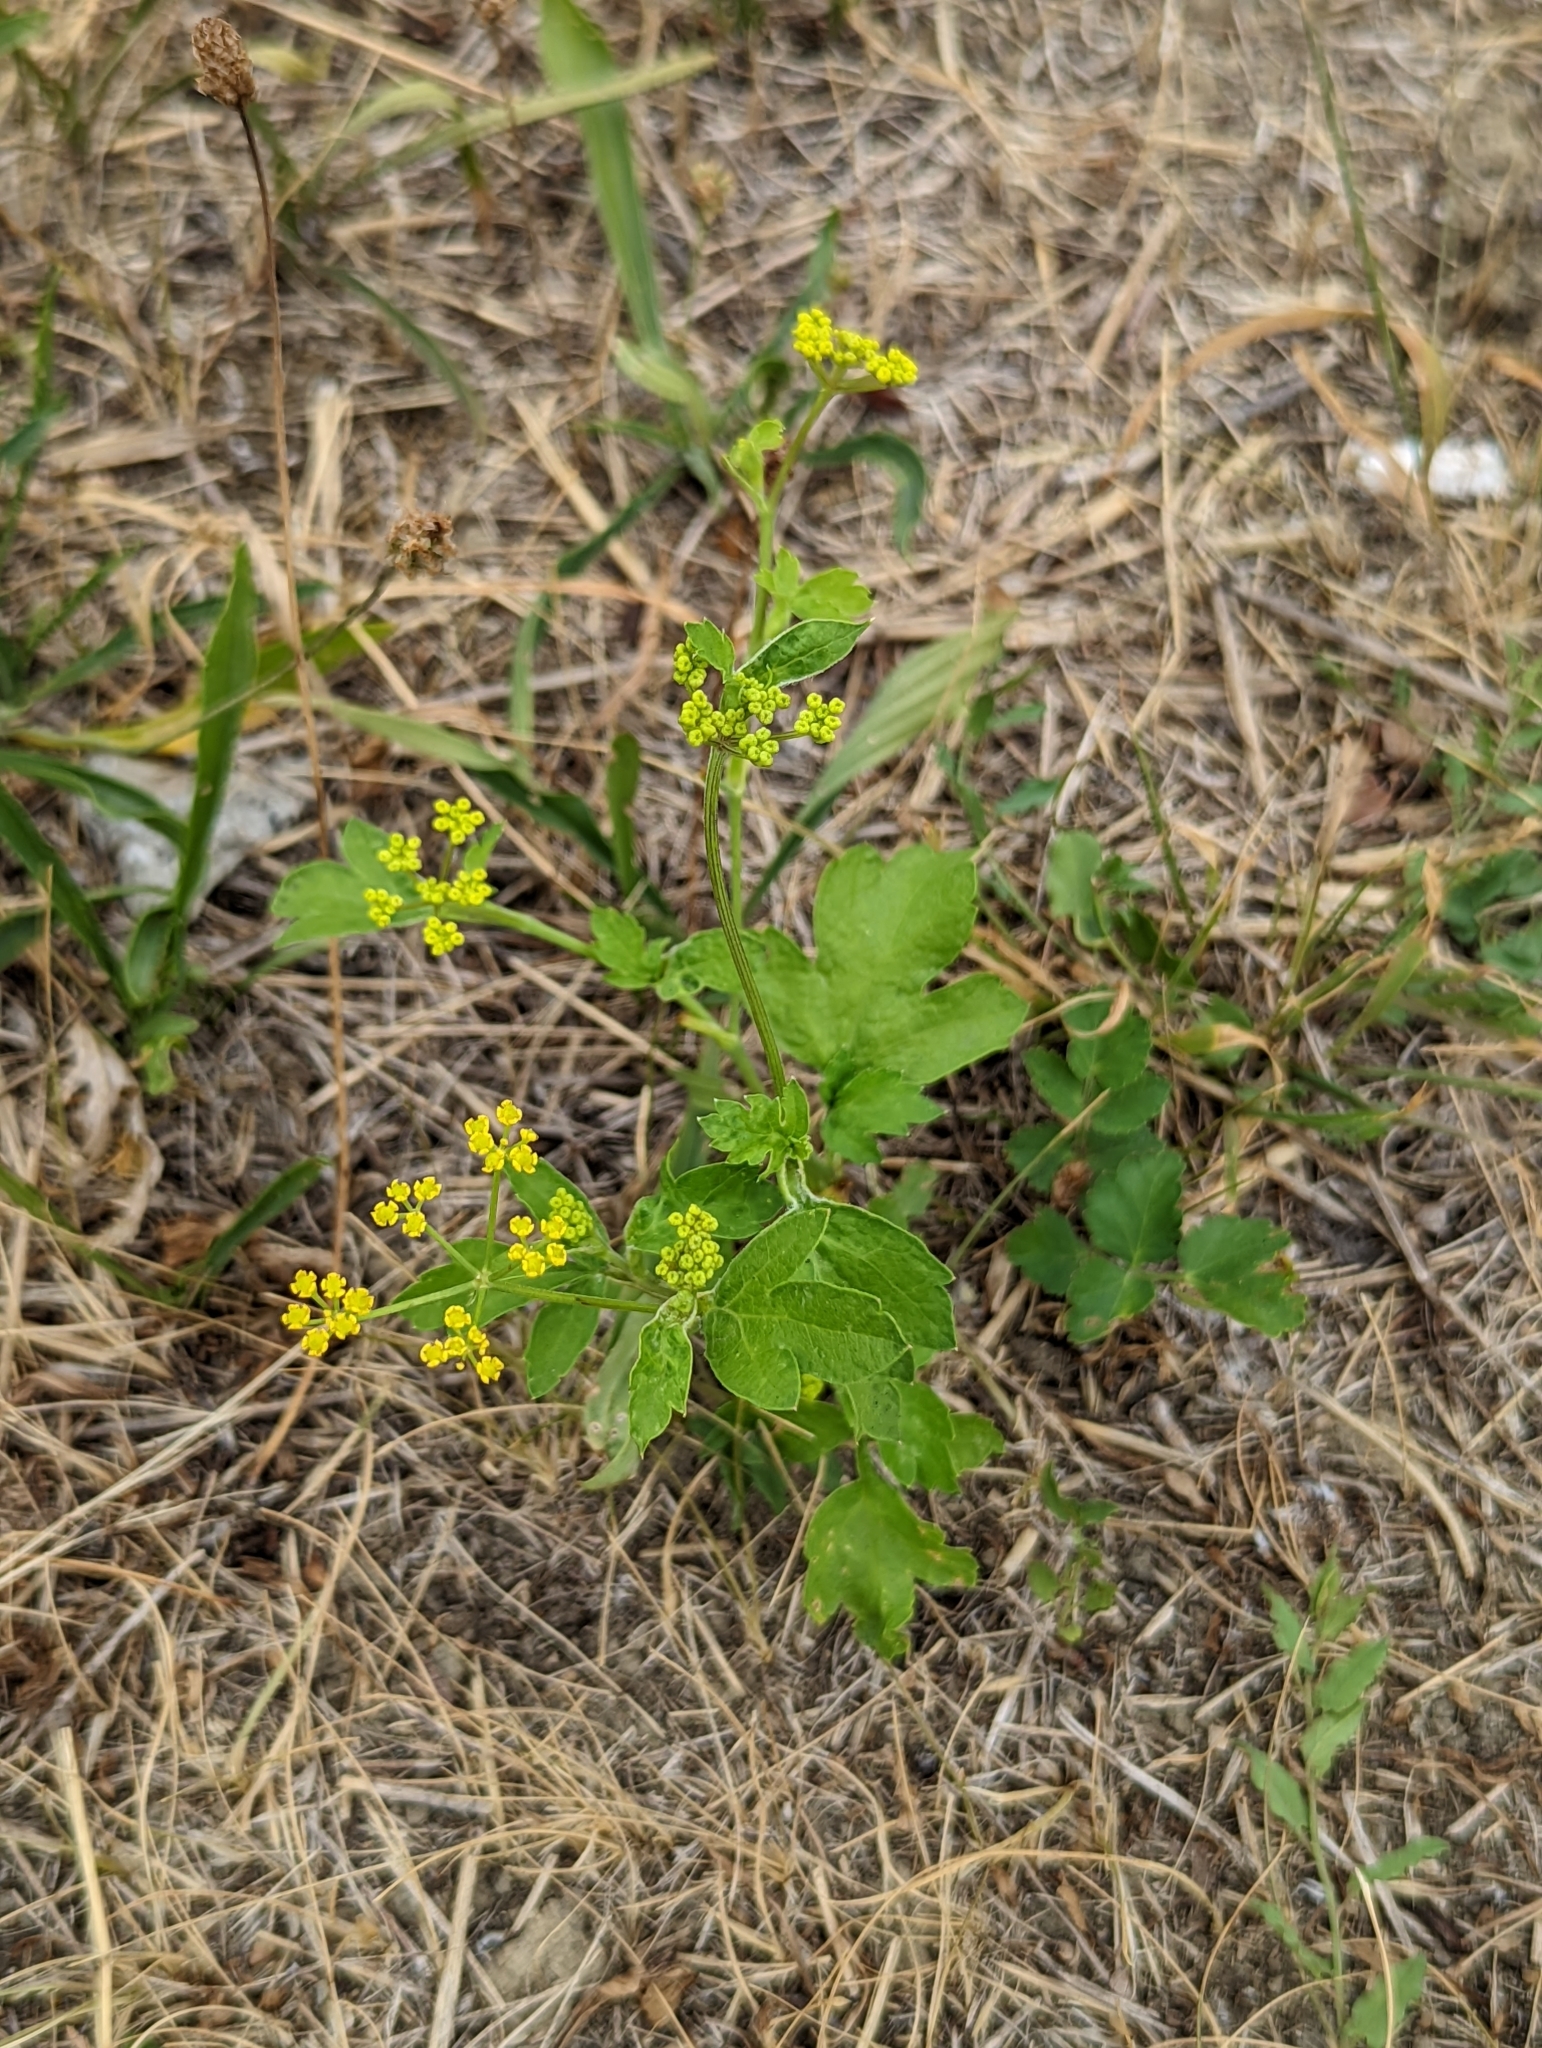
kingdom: Plantae
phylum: Tracheophyta
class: Magnoliopsida
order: Apiales
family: Apiaceae
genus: Pastinaca
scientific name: Pastinaca sativa
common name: Wild parsnip
